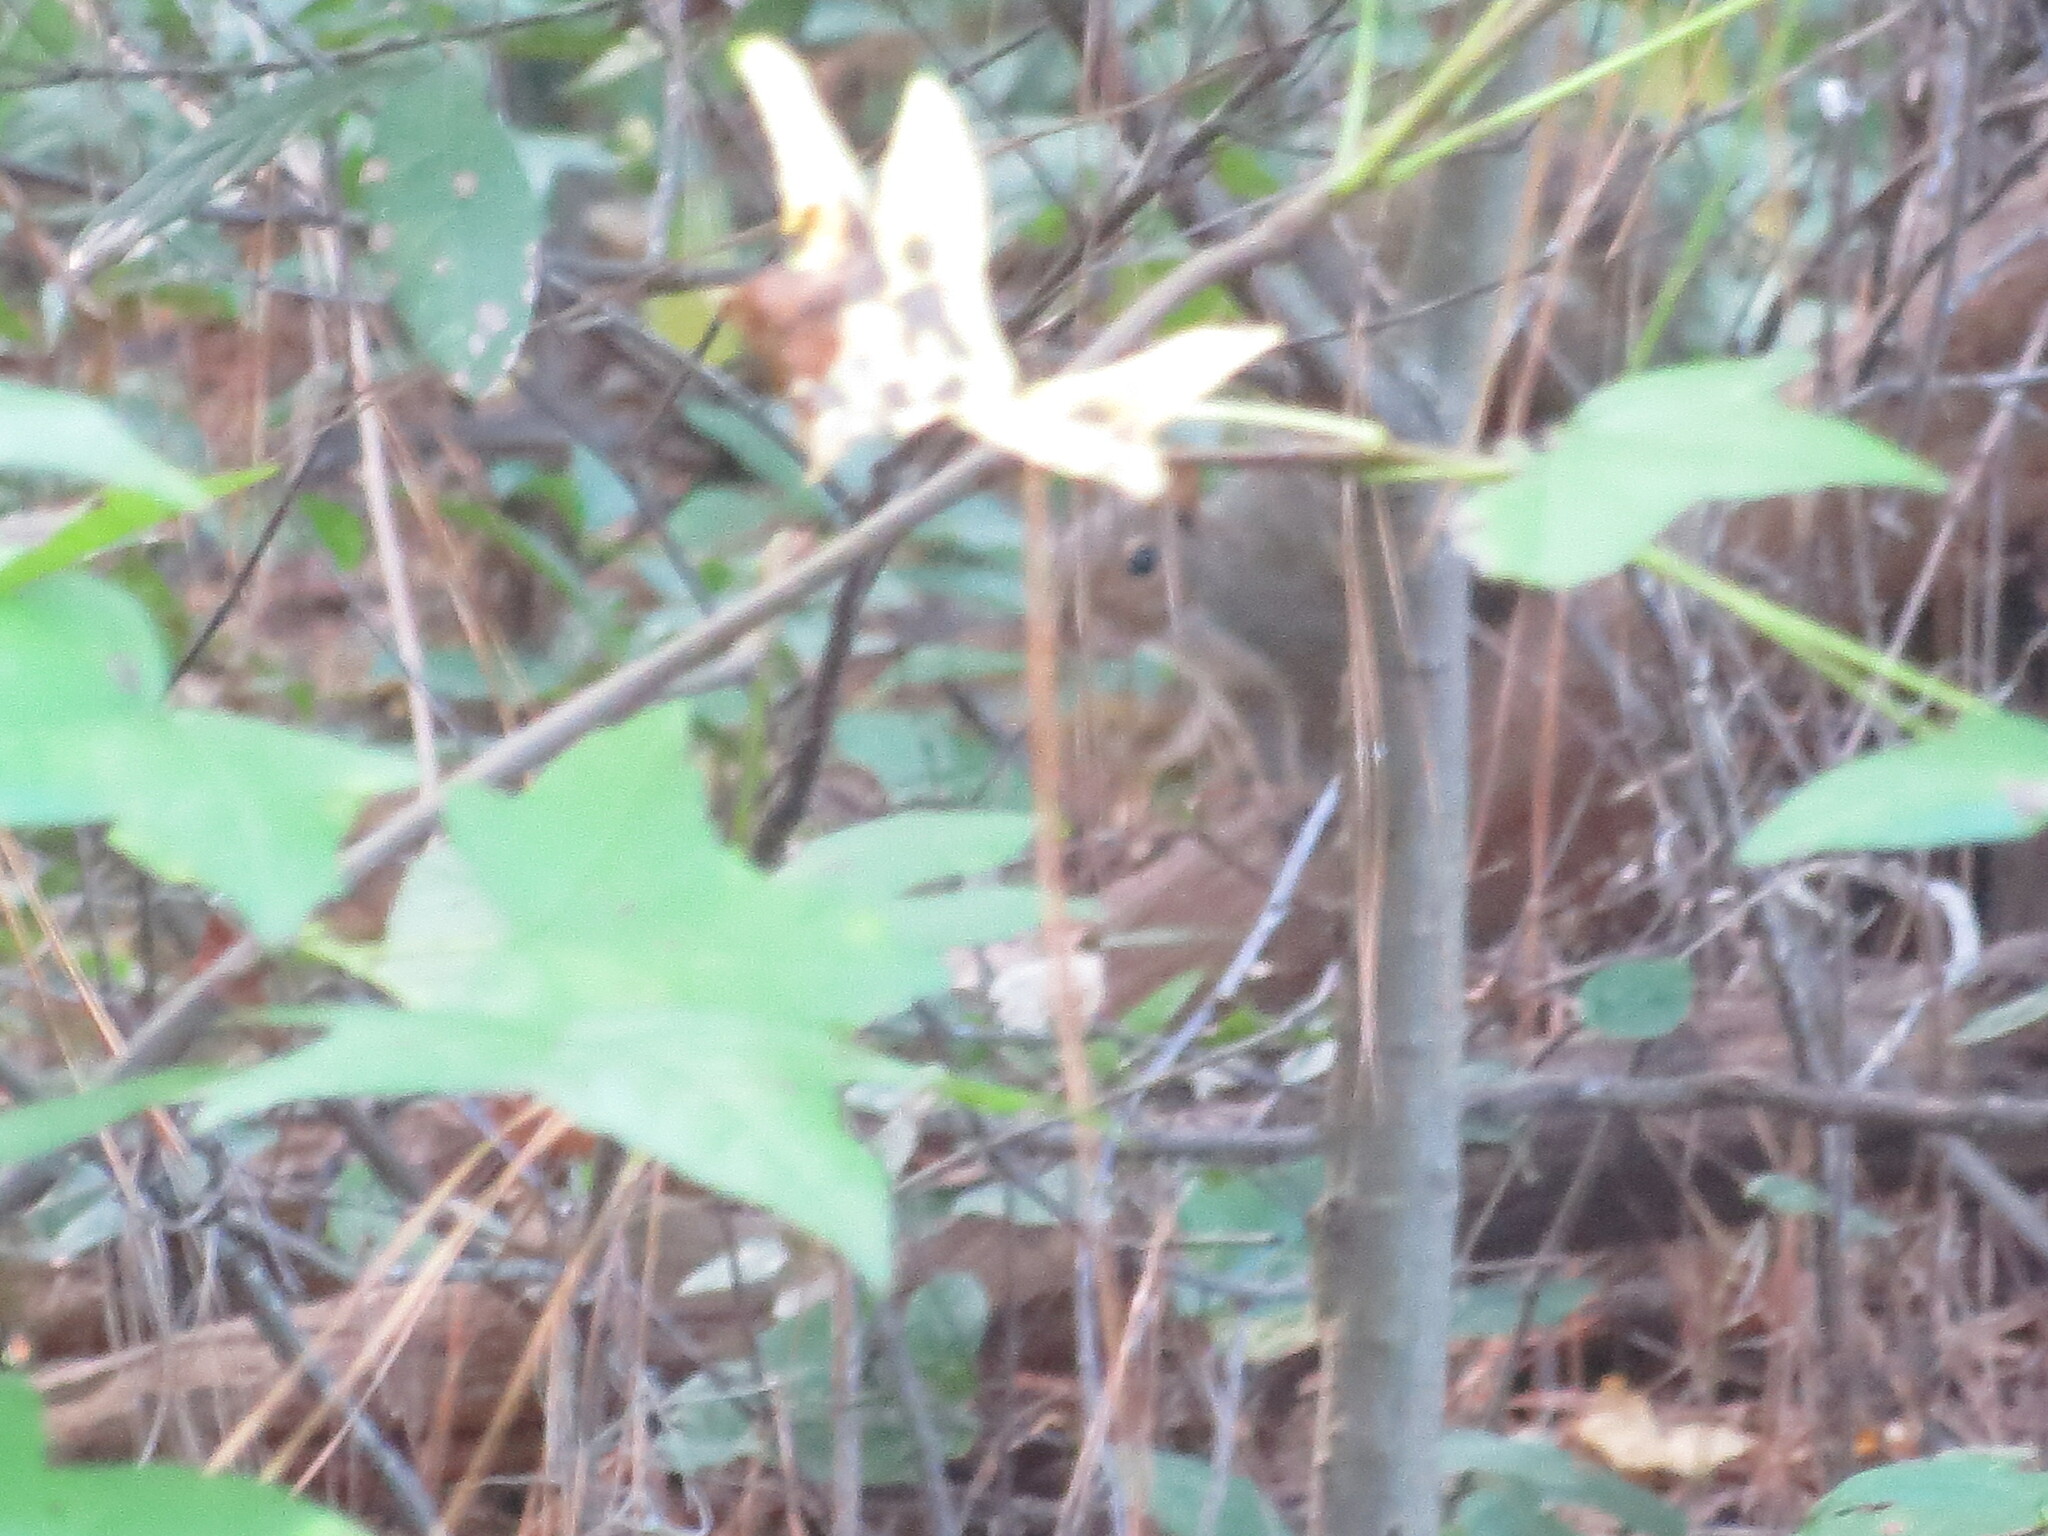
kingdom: Animalia
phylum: Chordata
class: Mammalia
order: Rodentia
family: Sciuridae
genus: Sciurus
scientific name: Sciurus carolinensis
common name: Eastern gray squirrel
